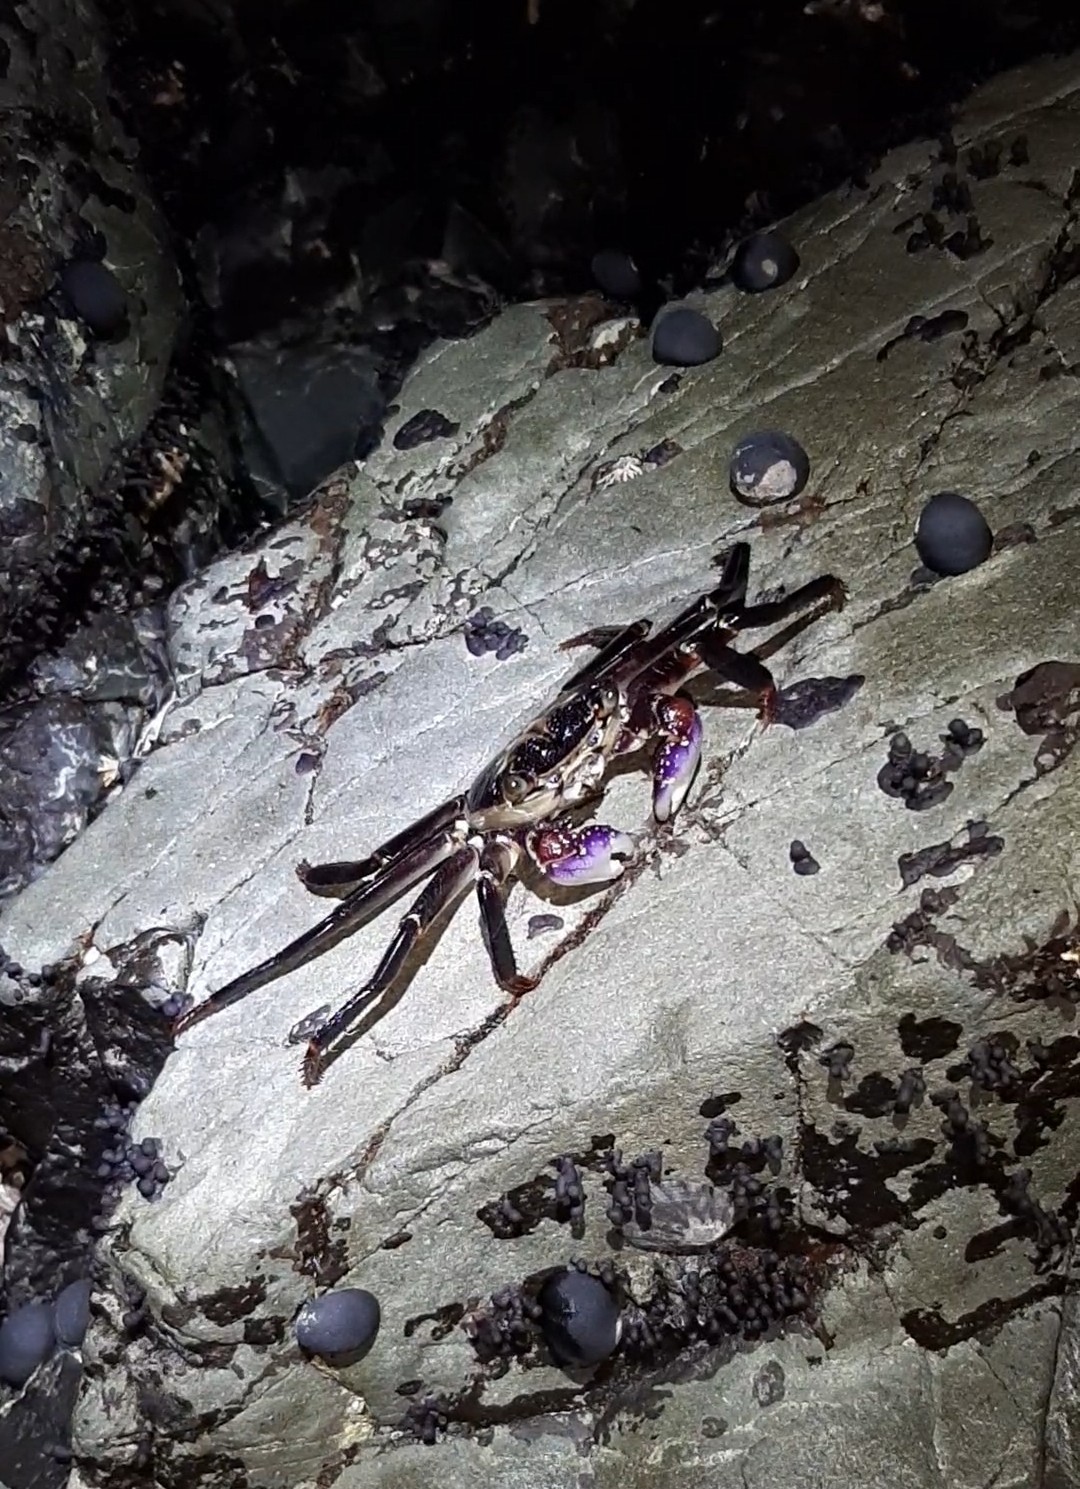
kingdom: Animalia
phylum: Arthropoda
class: Malacostraca
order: Decapoda
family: Grapsidae
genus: Leptograpsus
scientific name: Leptograpsus variegatus
